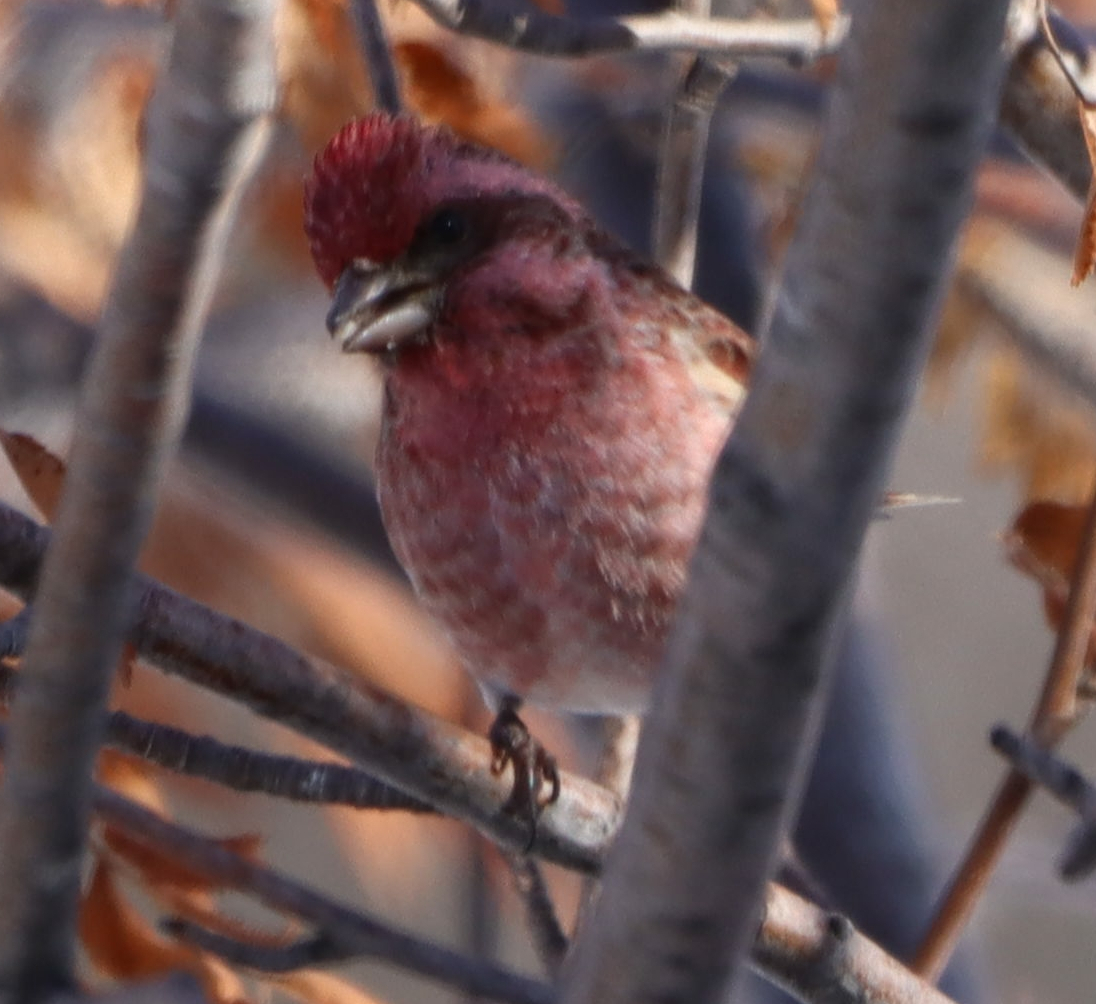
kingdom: Animalia
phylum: Chordata
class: Aves
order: Passeriformes
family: Fringillidae
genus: Haemorhous
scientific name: Haemorhous purpureus
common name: Purple finch
